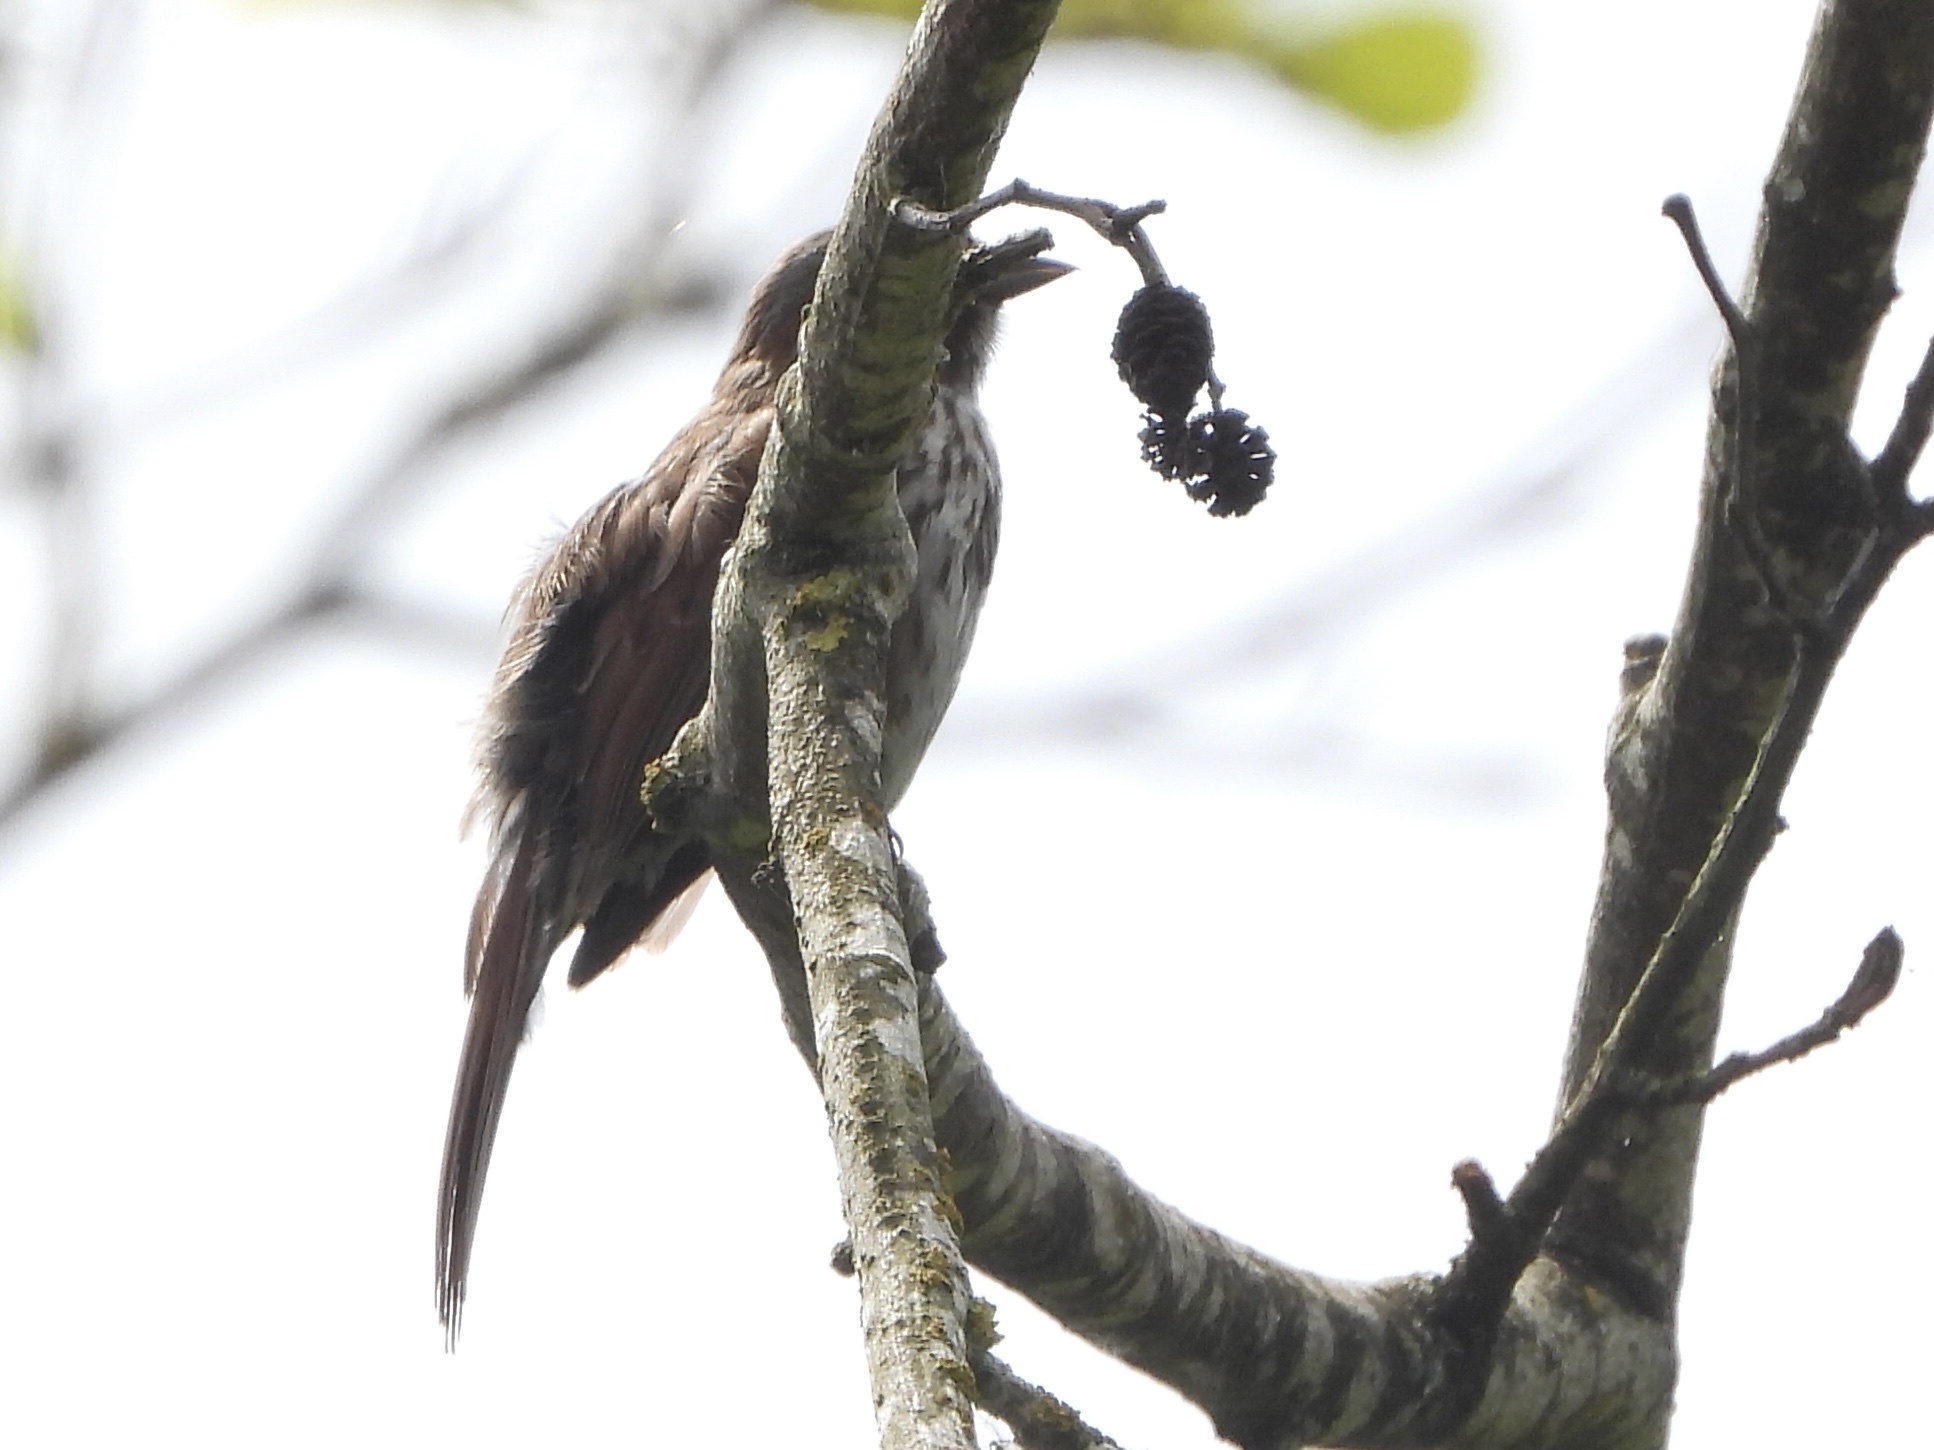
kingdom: Animalia
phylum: Chordata
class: Aves
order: Passeriformes
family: Passerellidae
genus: Melospiza
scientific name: Melospiza melodia
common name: Song sparrow
